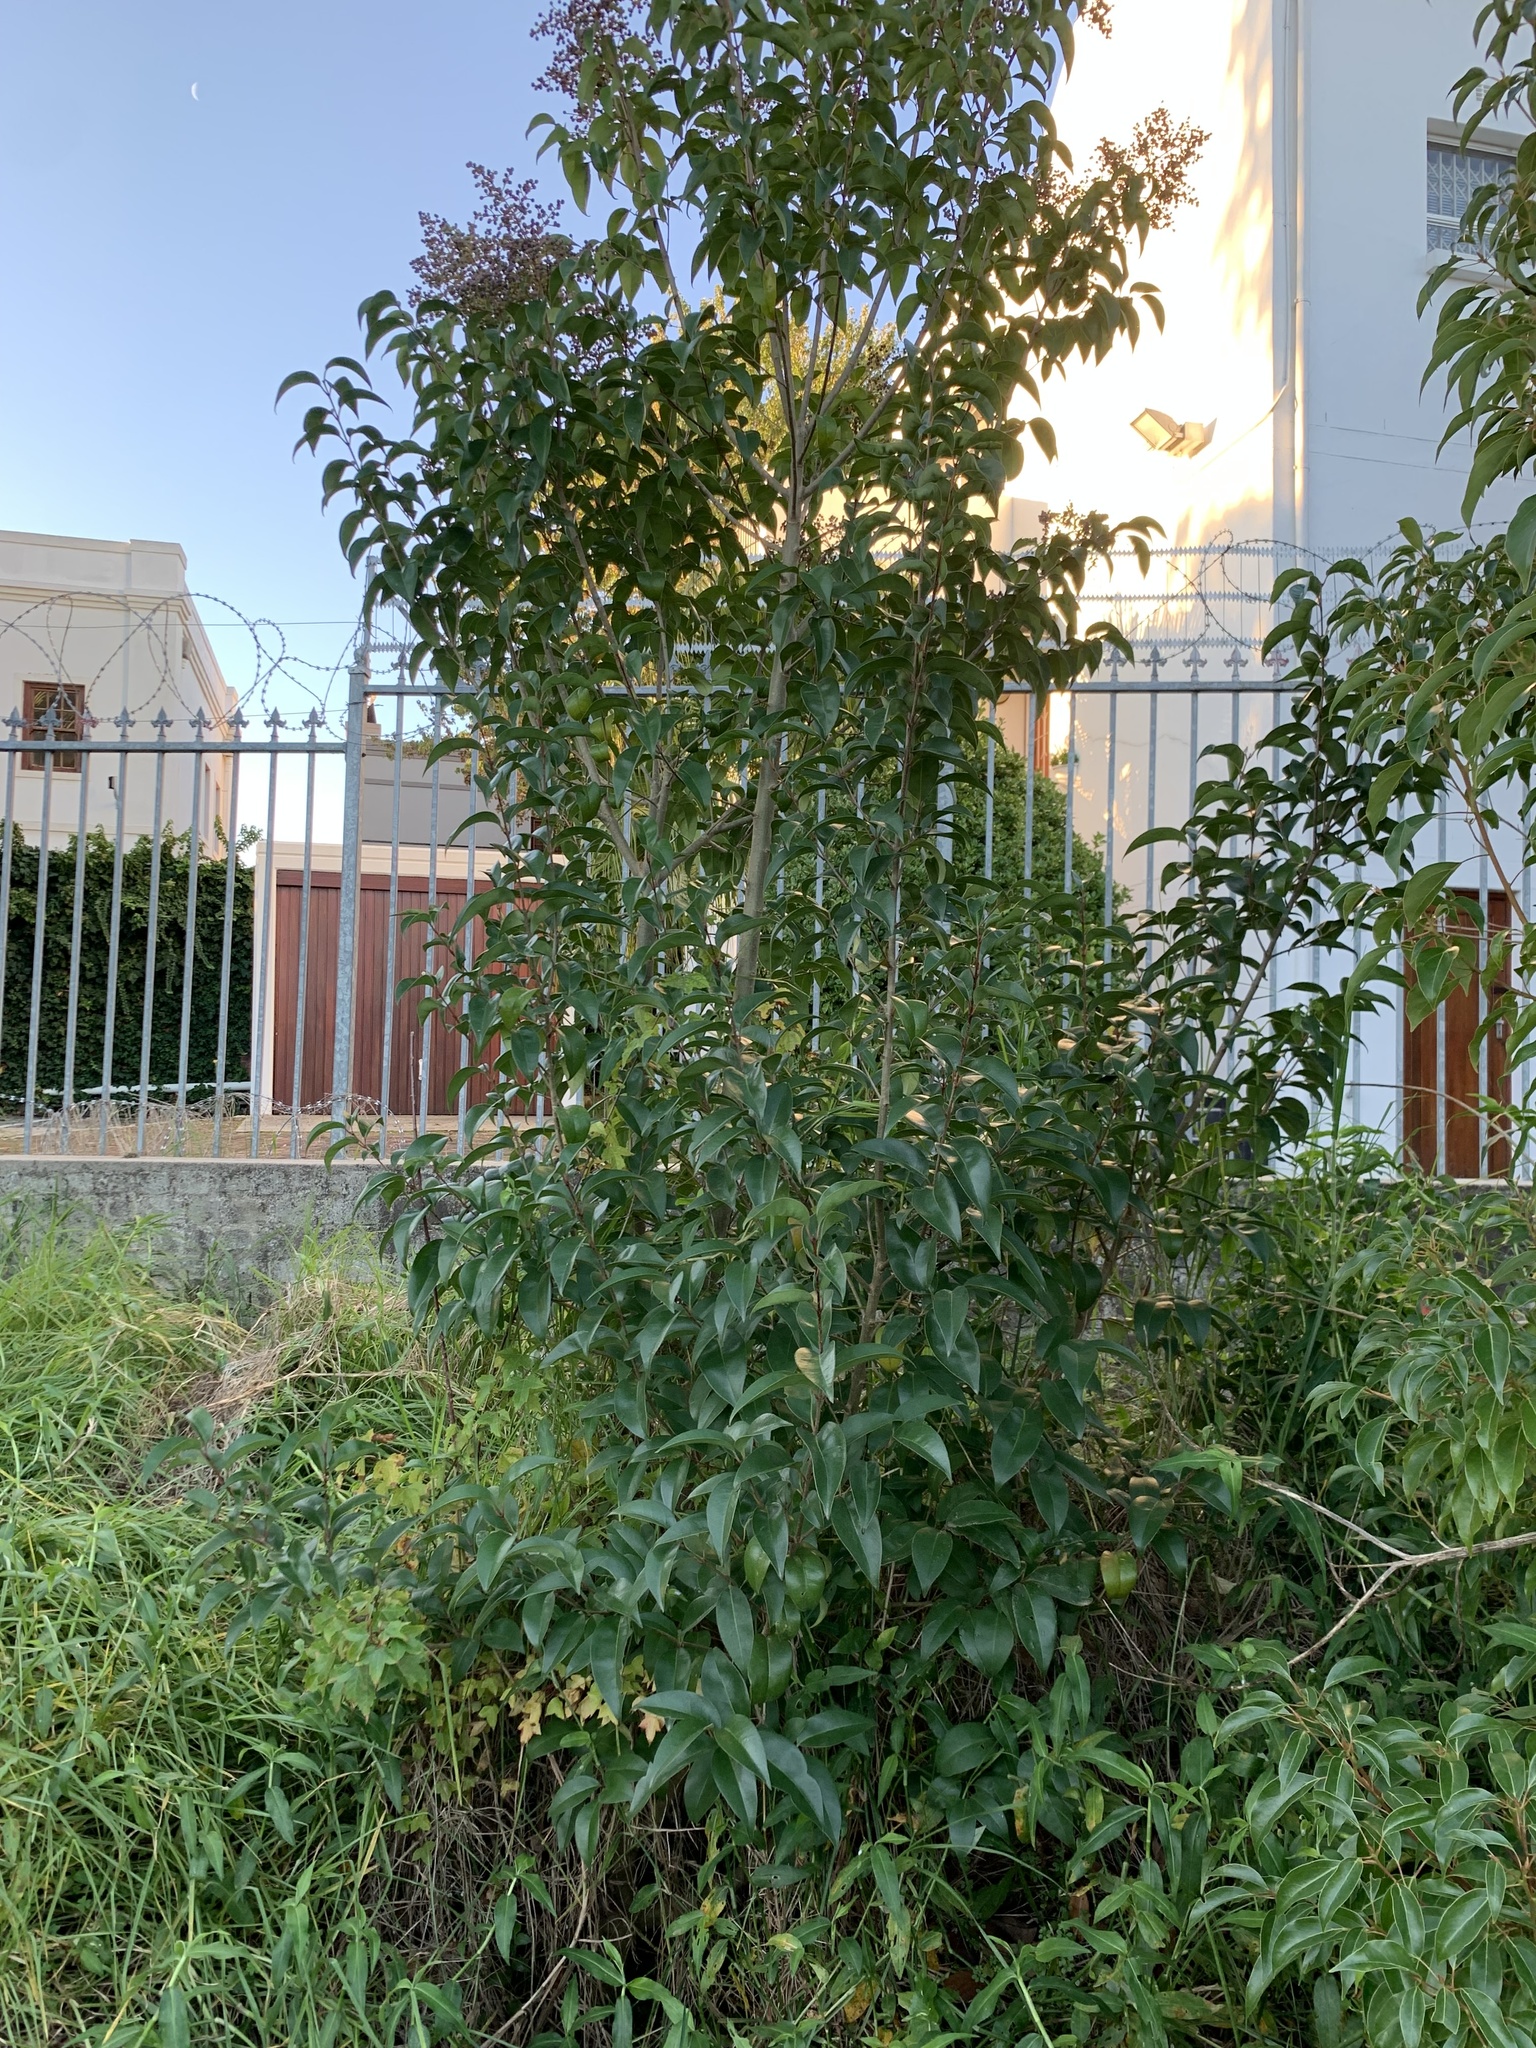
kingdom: Plantae
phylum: Tracheophyta
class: Magnoliopsida
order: Lamiales
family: Oleaceae
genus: Ligustrum
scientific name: Ligustrum lucidum
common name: Glossy privet
